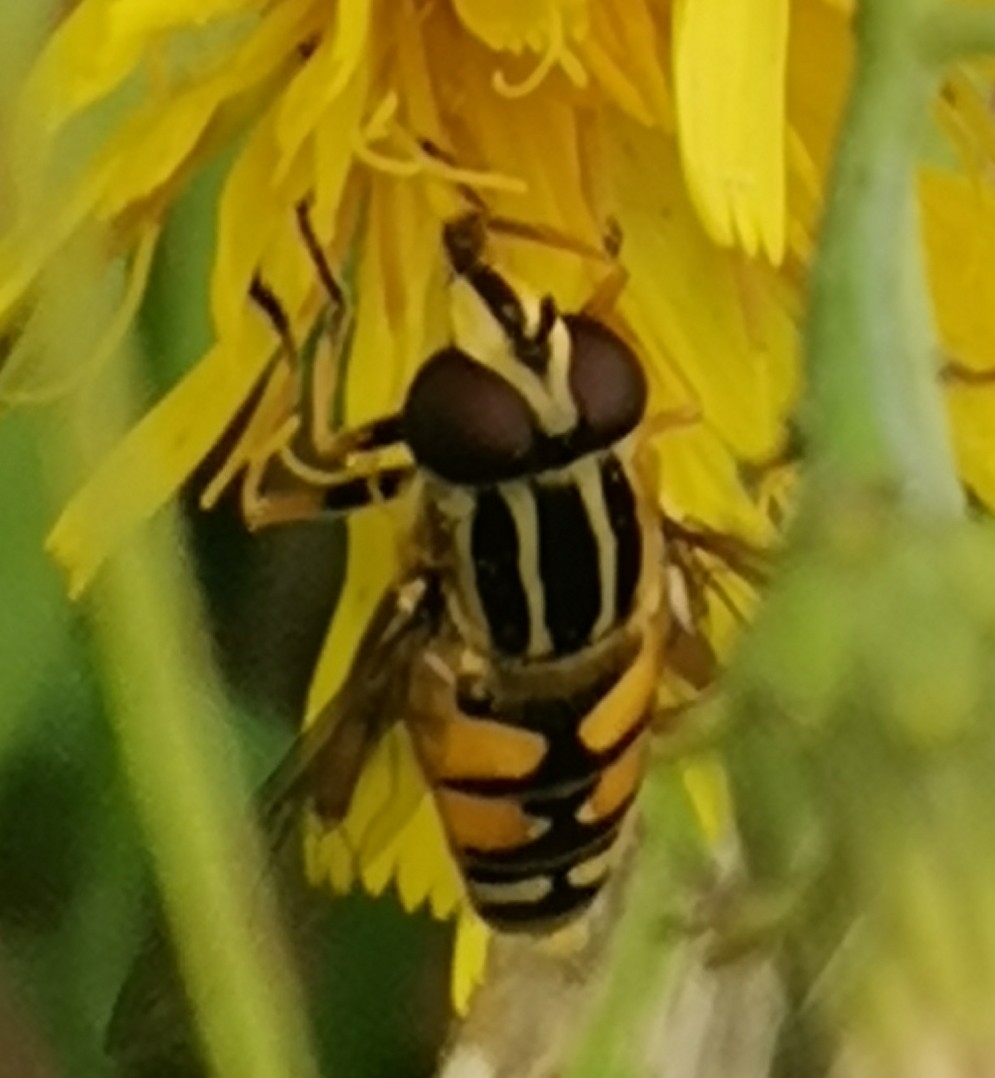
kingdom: Animalia
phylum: Arthropoda
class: Insecta
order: Diptera
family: Syrphidae
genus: Helophilus
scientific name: Helophilus pendulus
